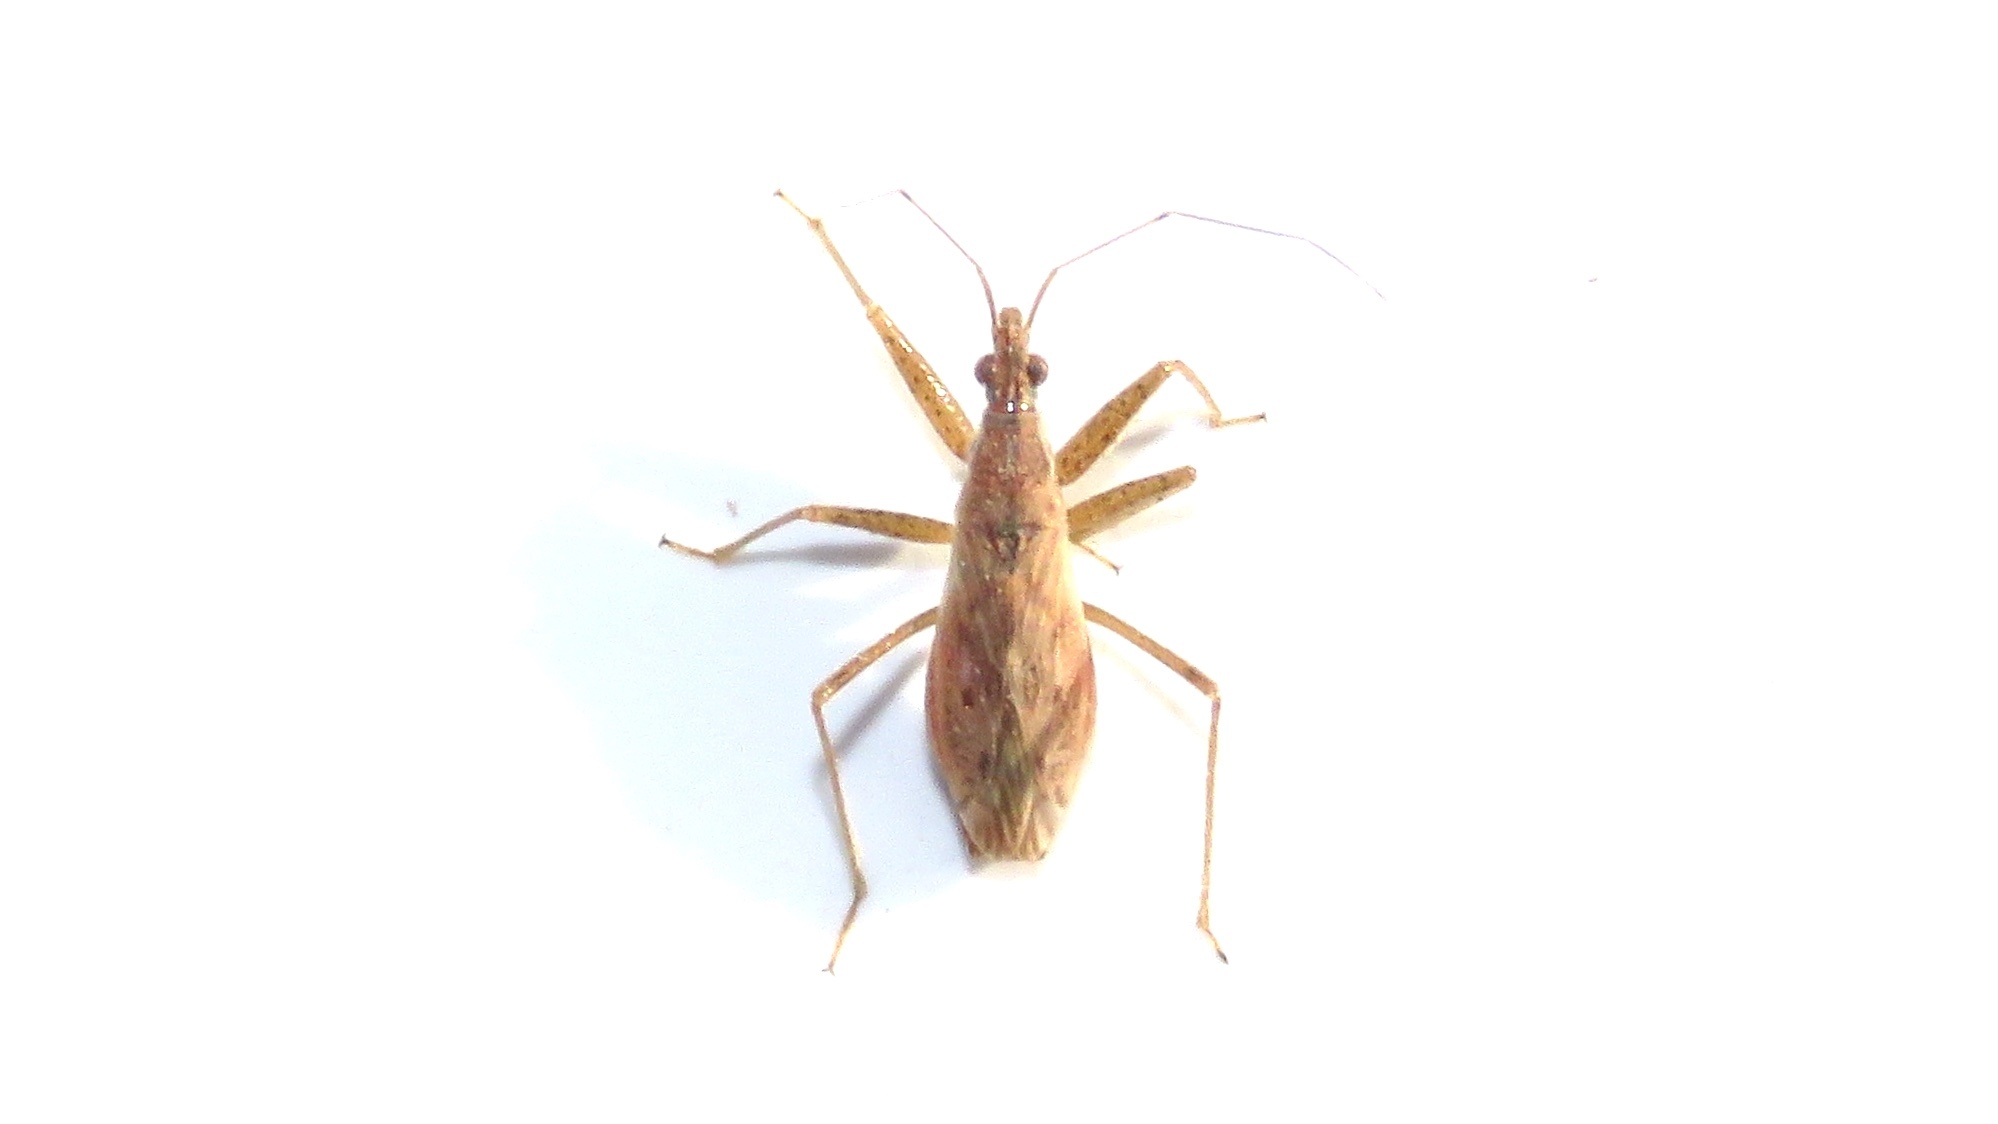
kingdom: Animalia
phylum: Arthropoda
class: Insecta
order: Hemiptera
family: Nabidae
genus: Nabis
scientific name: Nabis rufusculus
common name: Short-winged nabis
